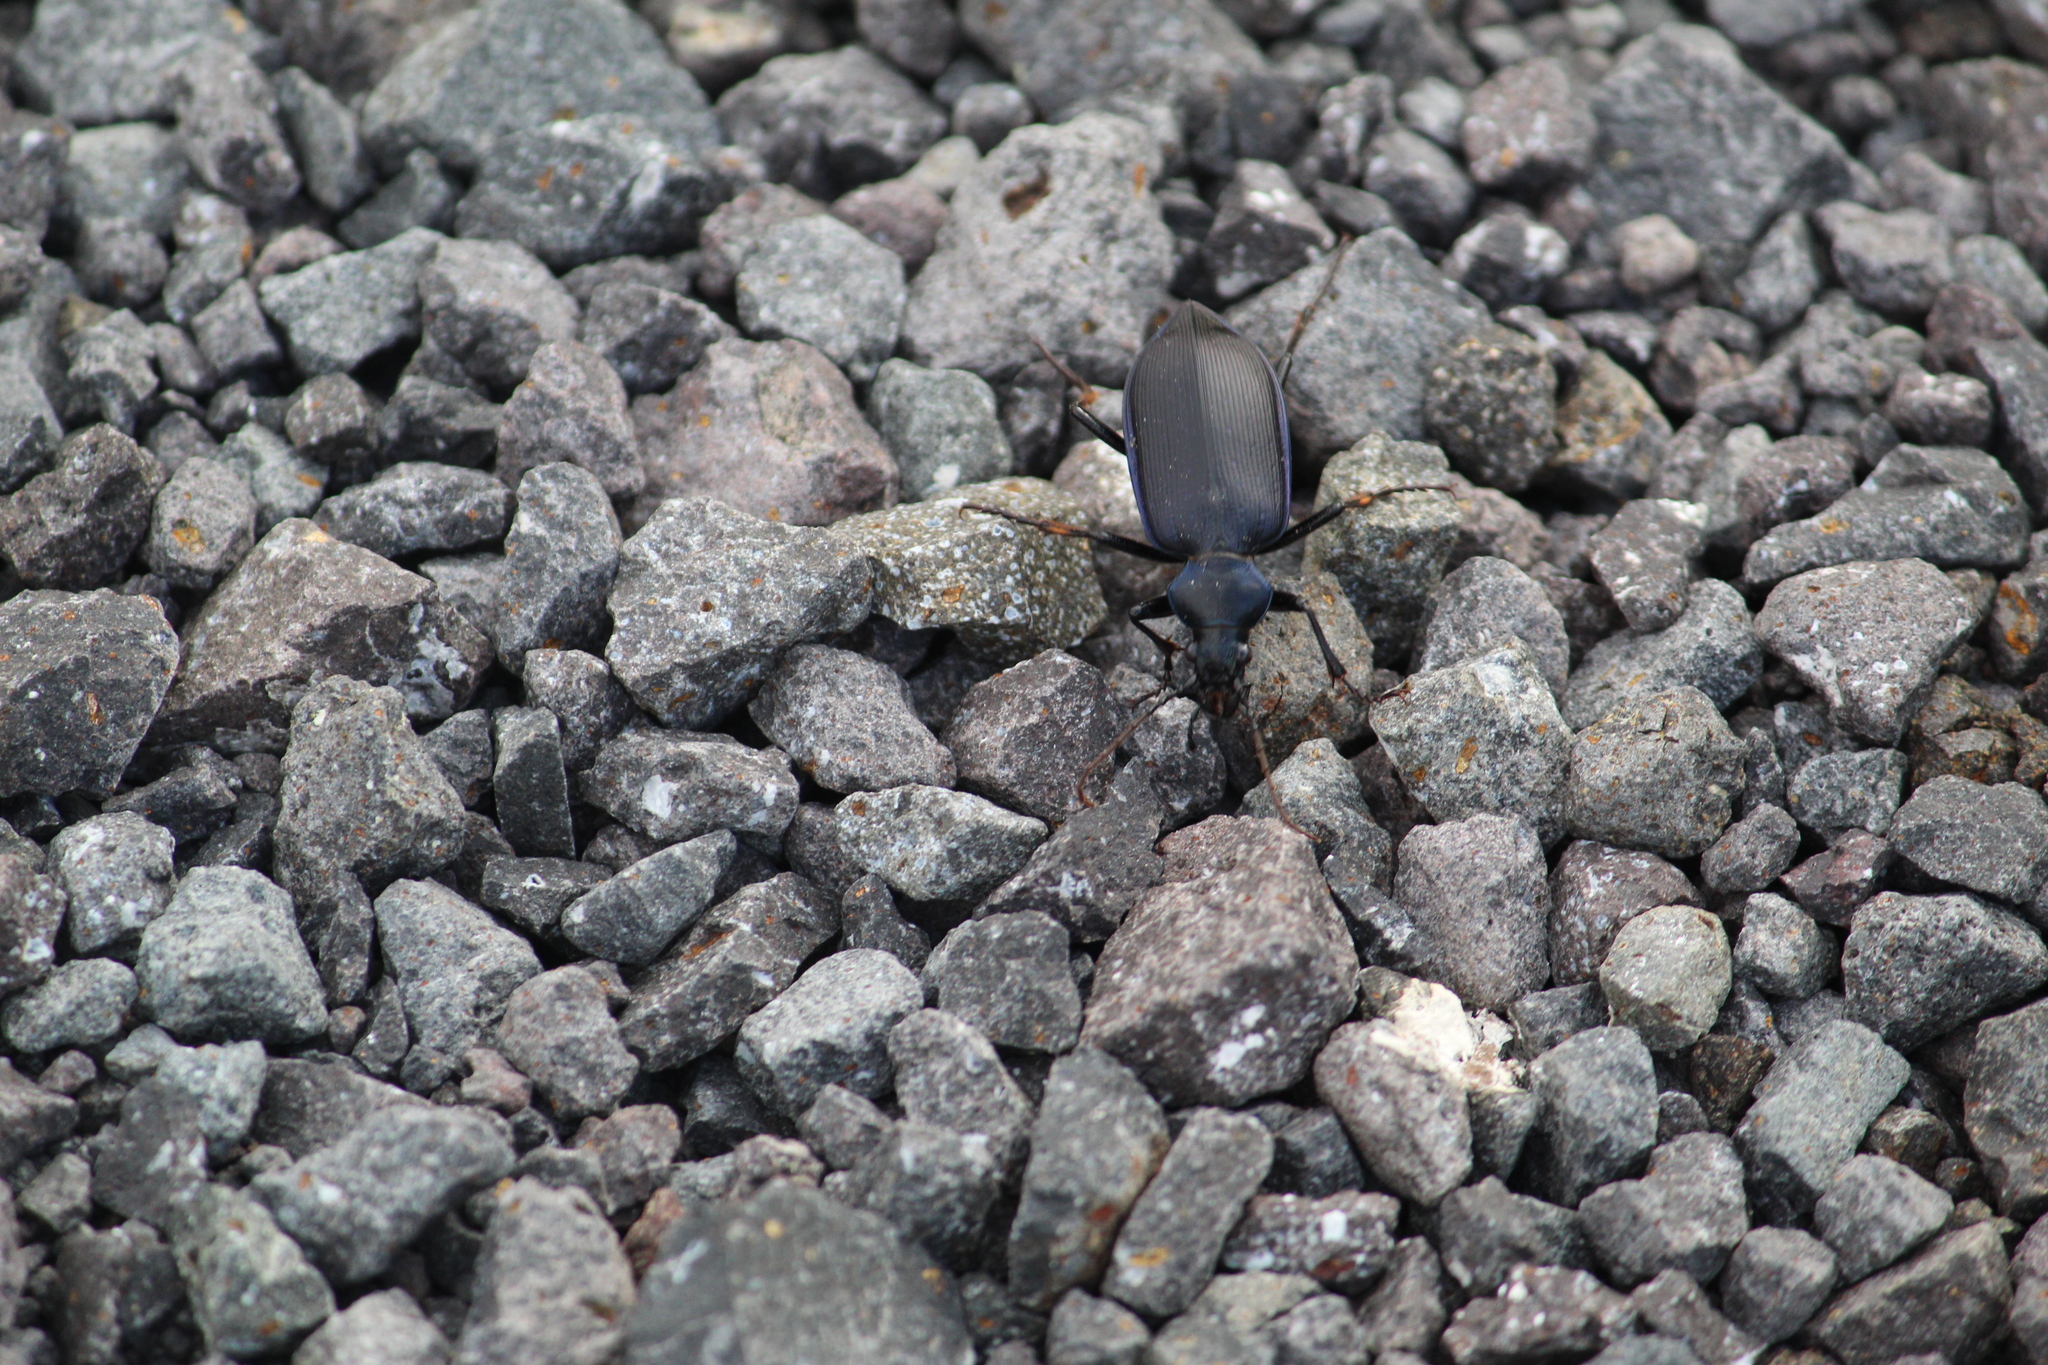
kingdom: Animalia
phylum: Arthropoda
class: Insecta
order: Coleoptera
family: Carabidae
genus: Calosoma
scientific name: Calosoma angulatum
